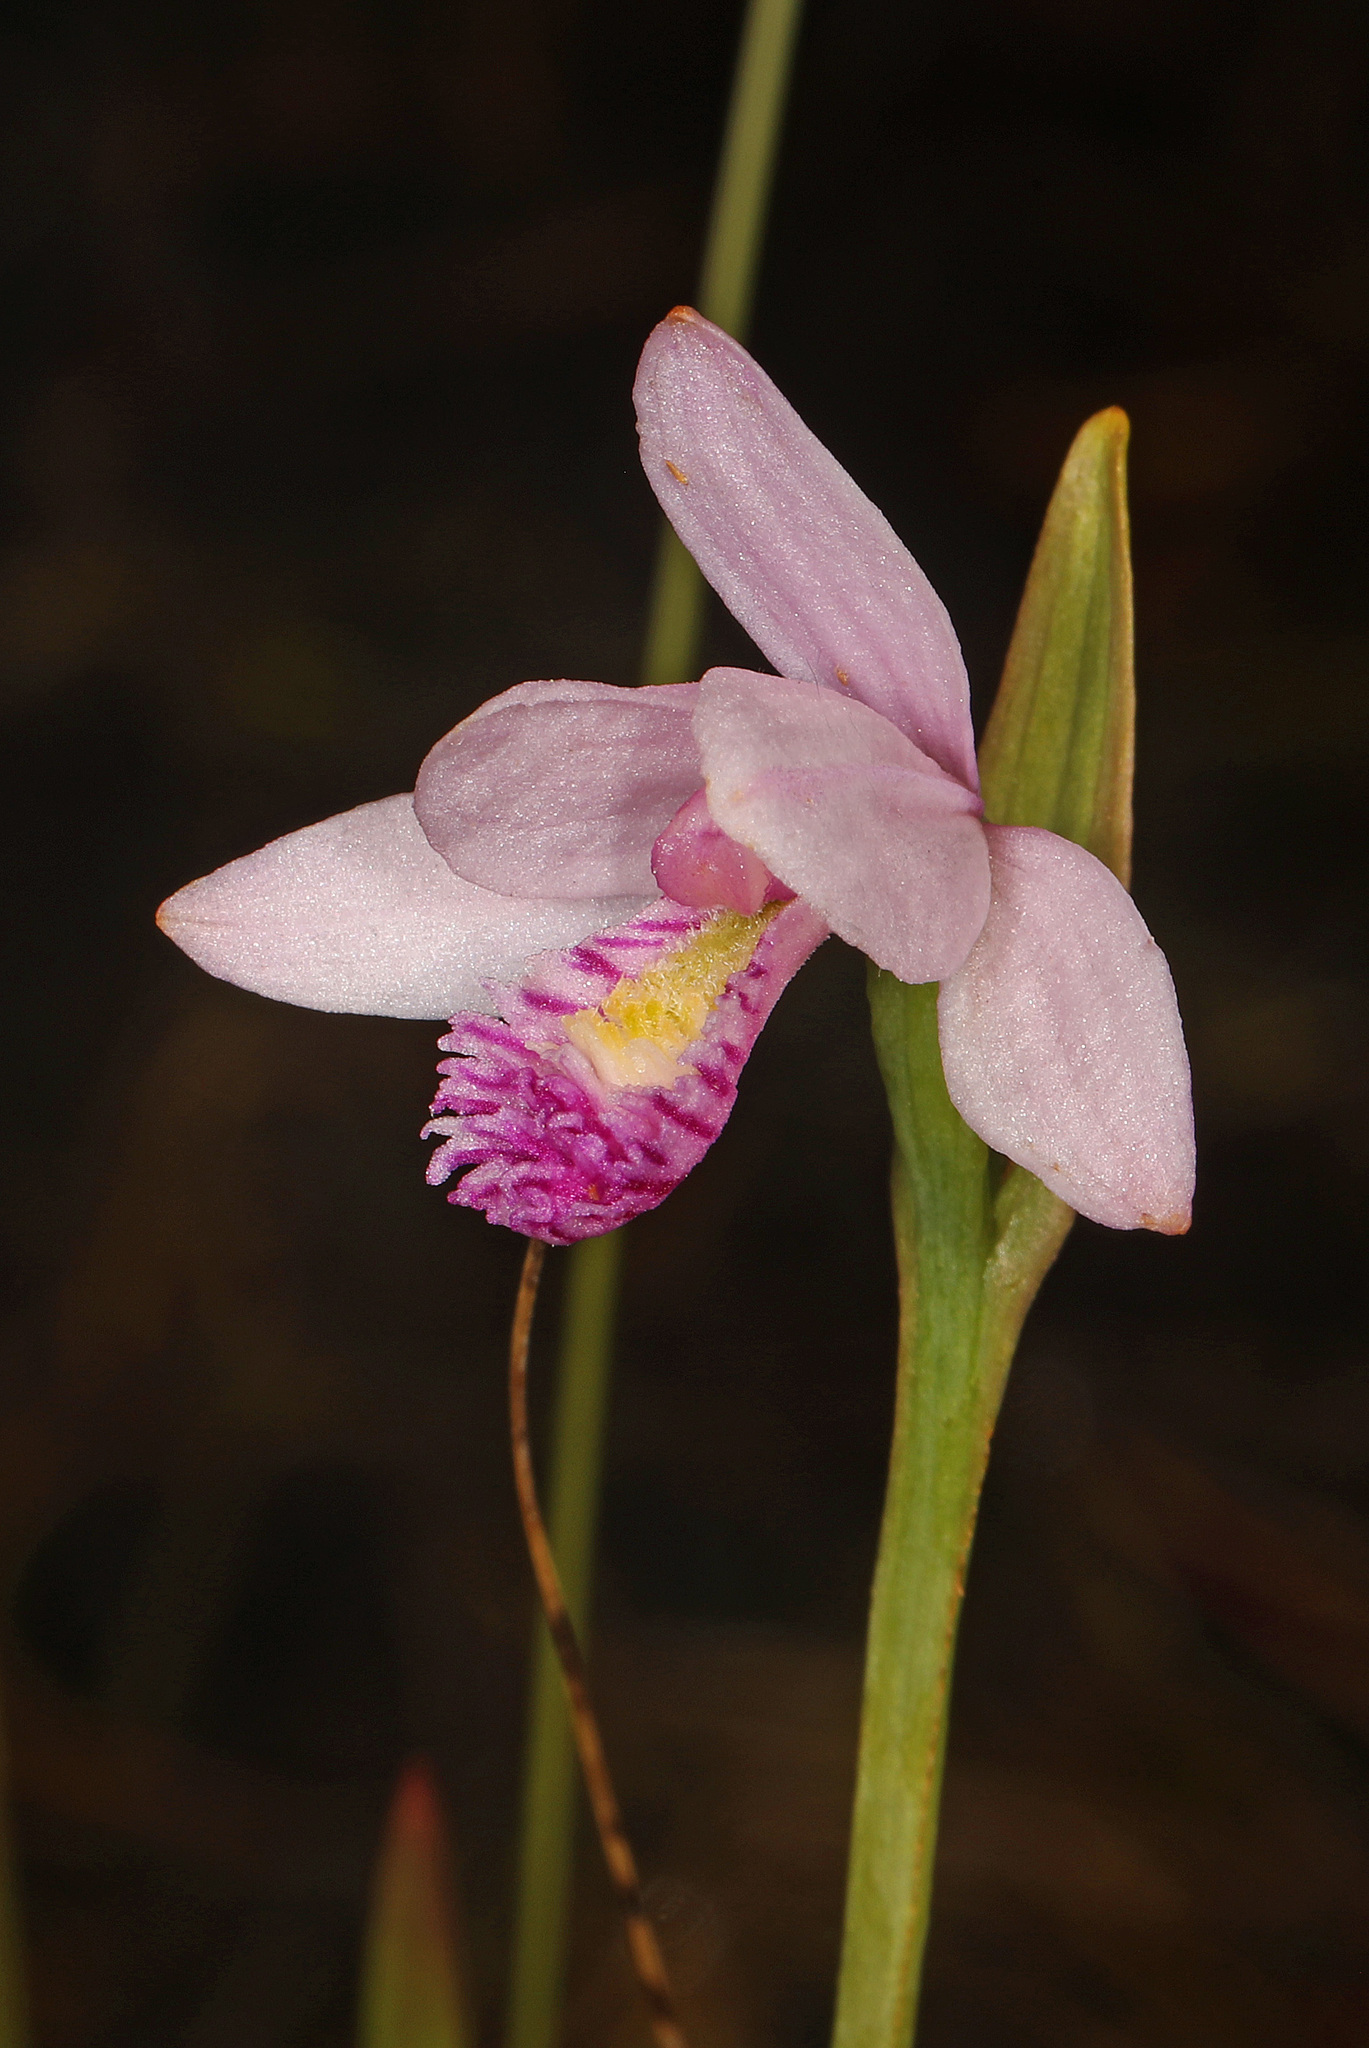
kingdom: Plantae
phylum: Tracheophyta
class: Liliopsida
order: Asparagales
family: Orchidaceae
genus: Pogonia
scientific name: Pogonia ophioglossoides
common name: Rose pogonia
